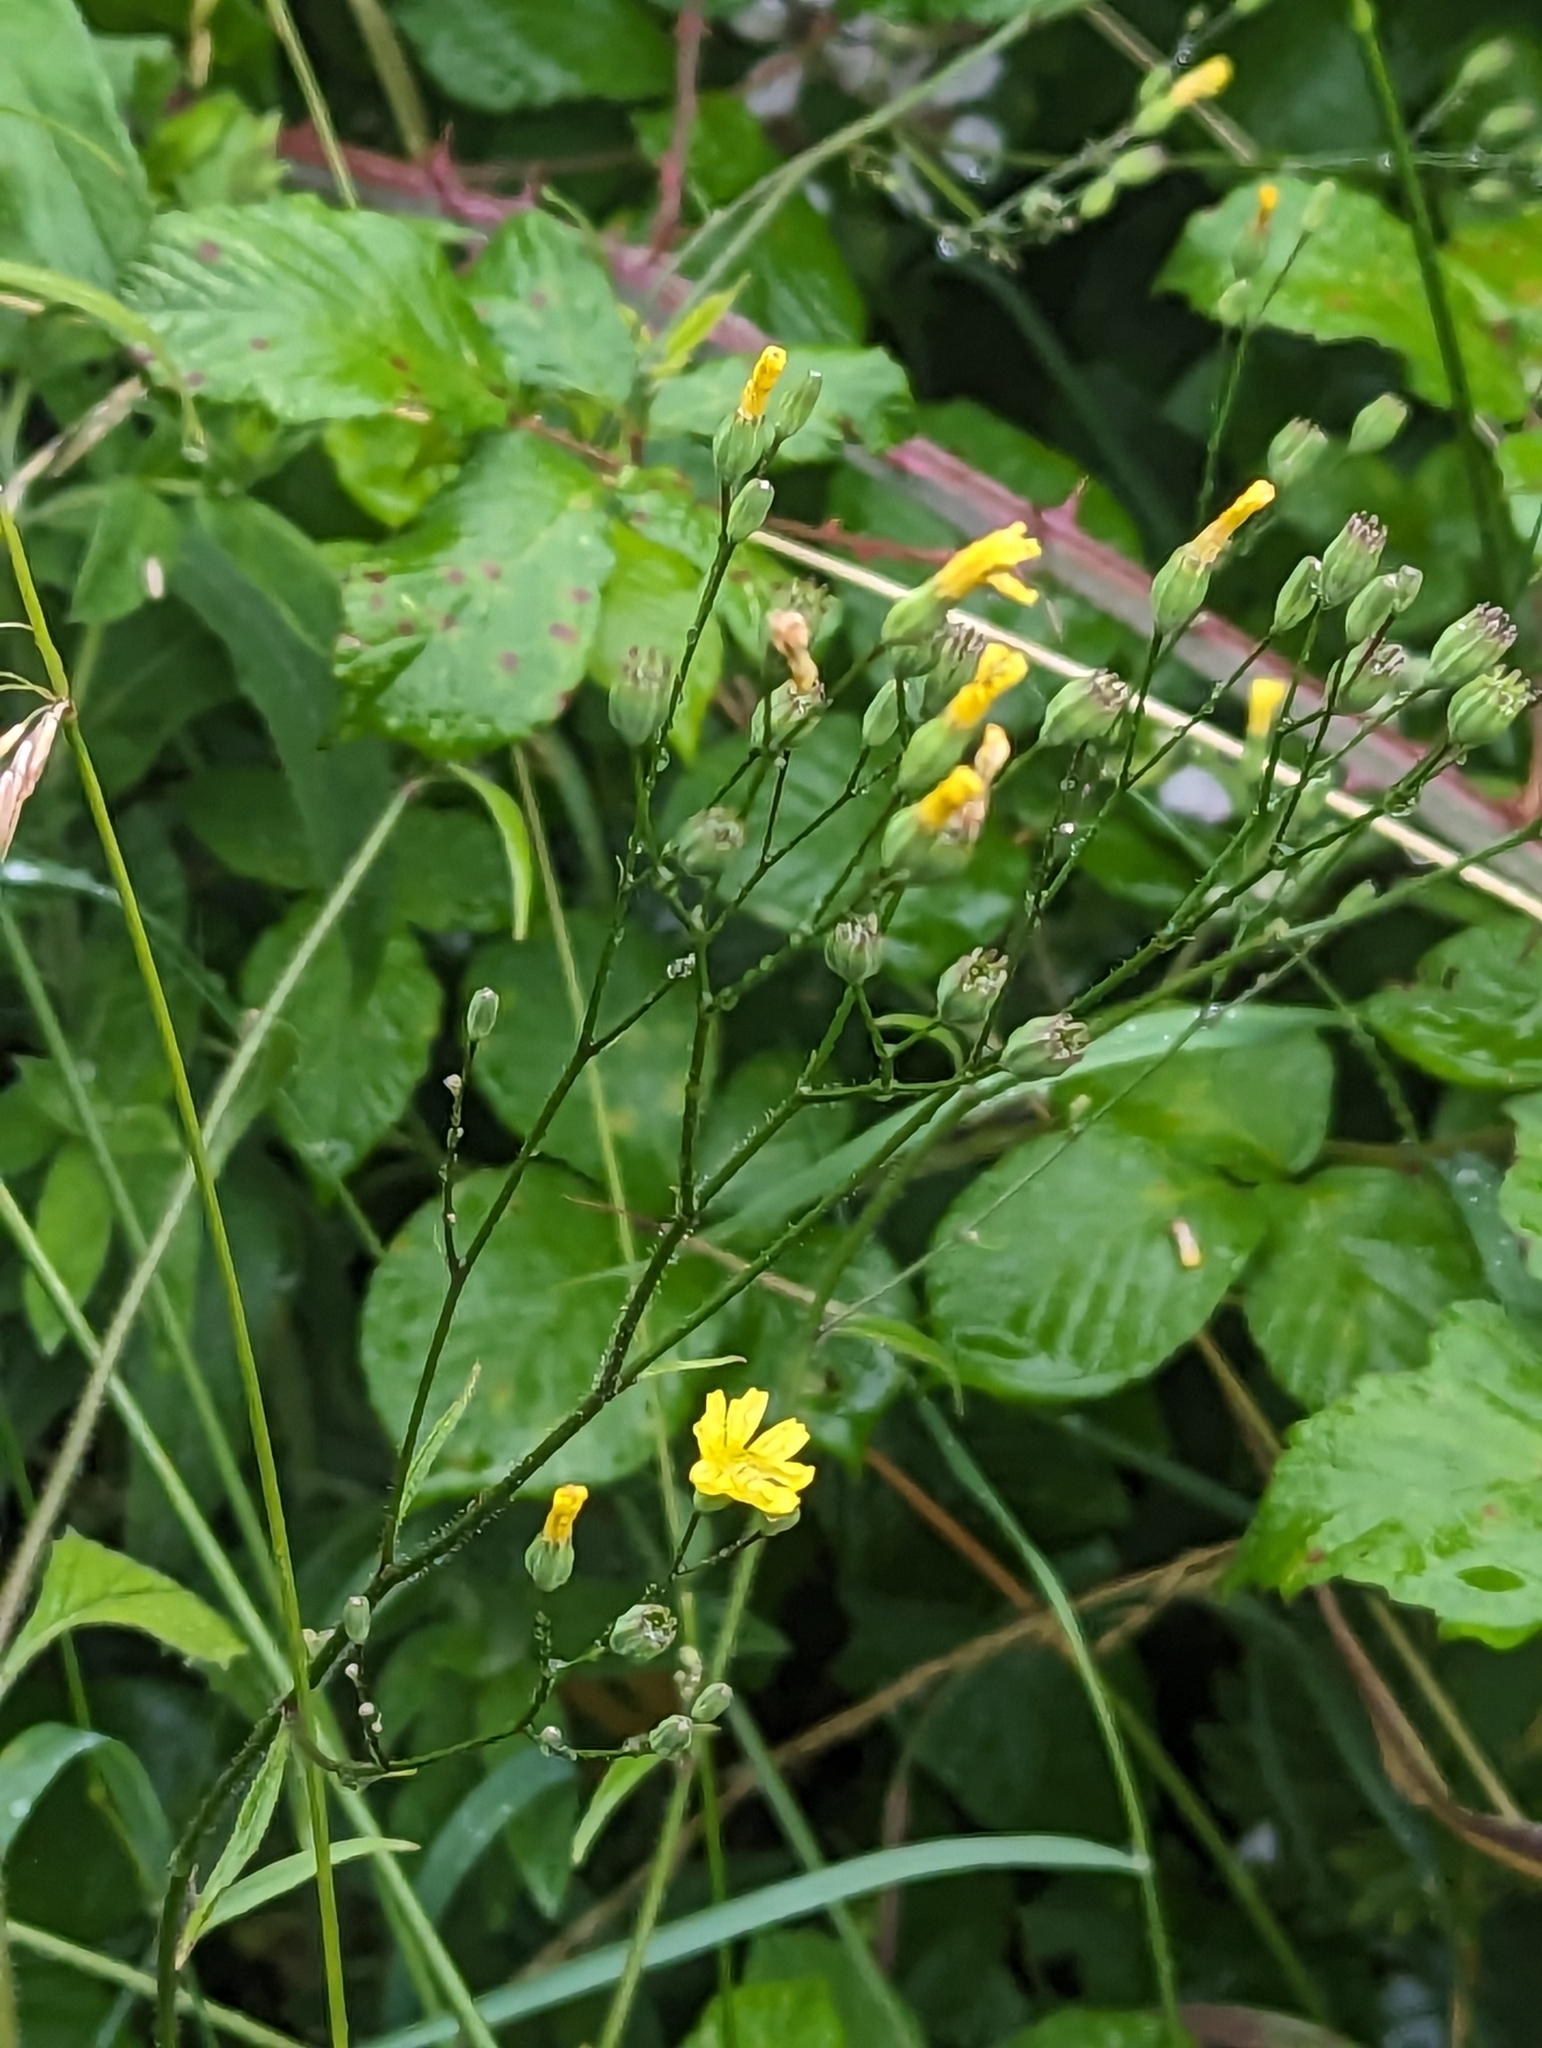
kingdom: Plantae
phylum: Tracheophyta
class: Magnoliopsida
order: Asterales
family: Asteraceae
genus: Lapsana
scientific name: Lapsana communis
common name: Nipplewort
